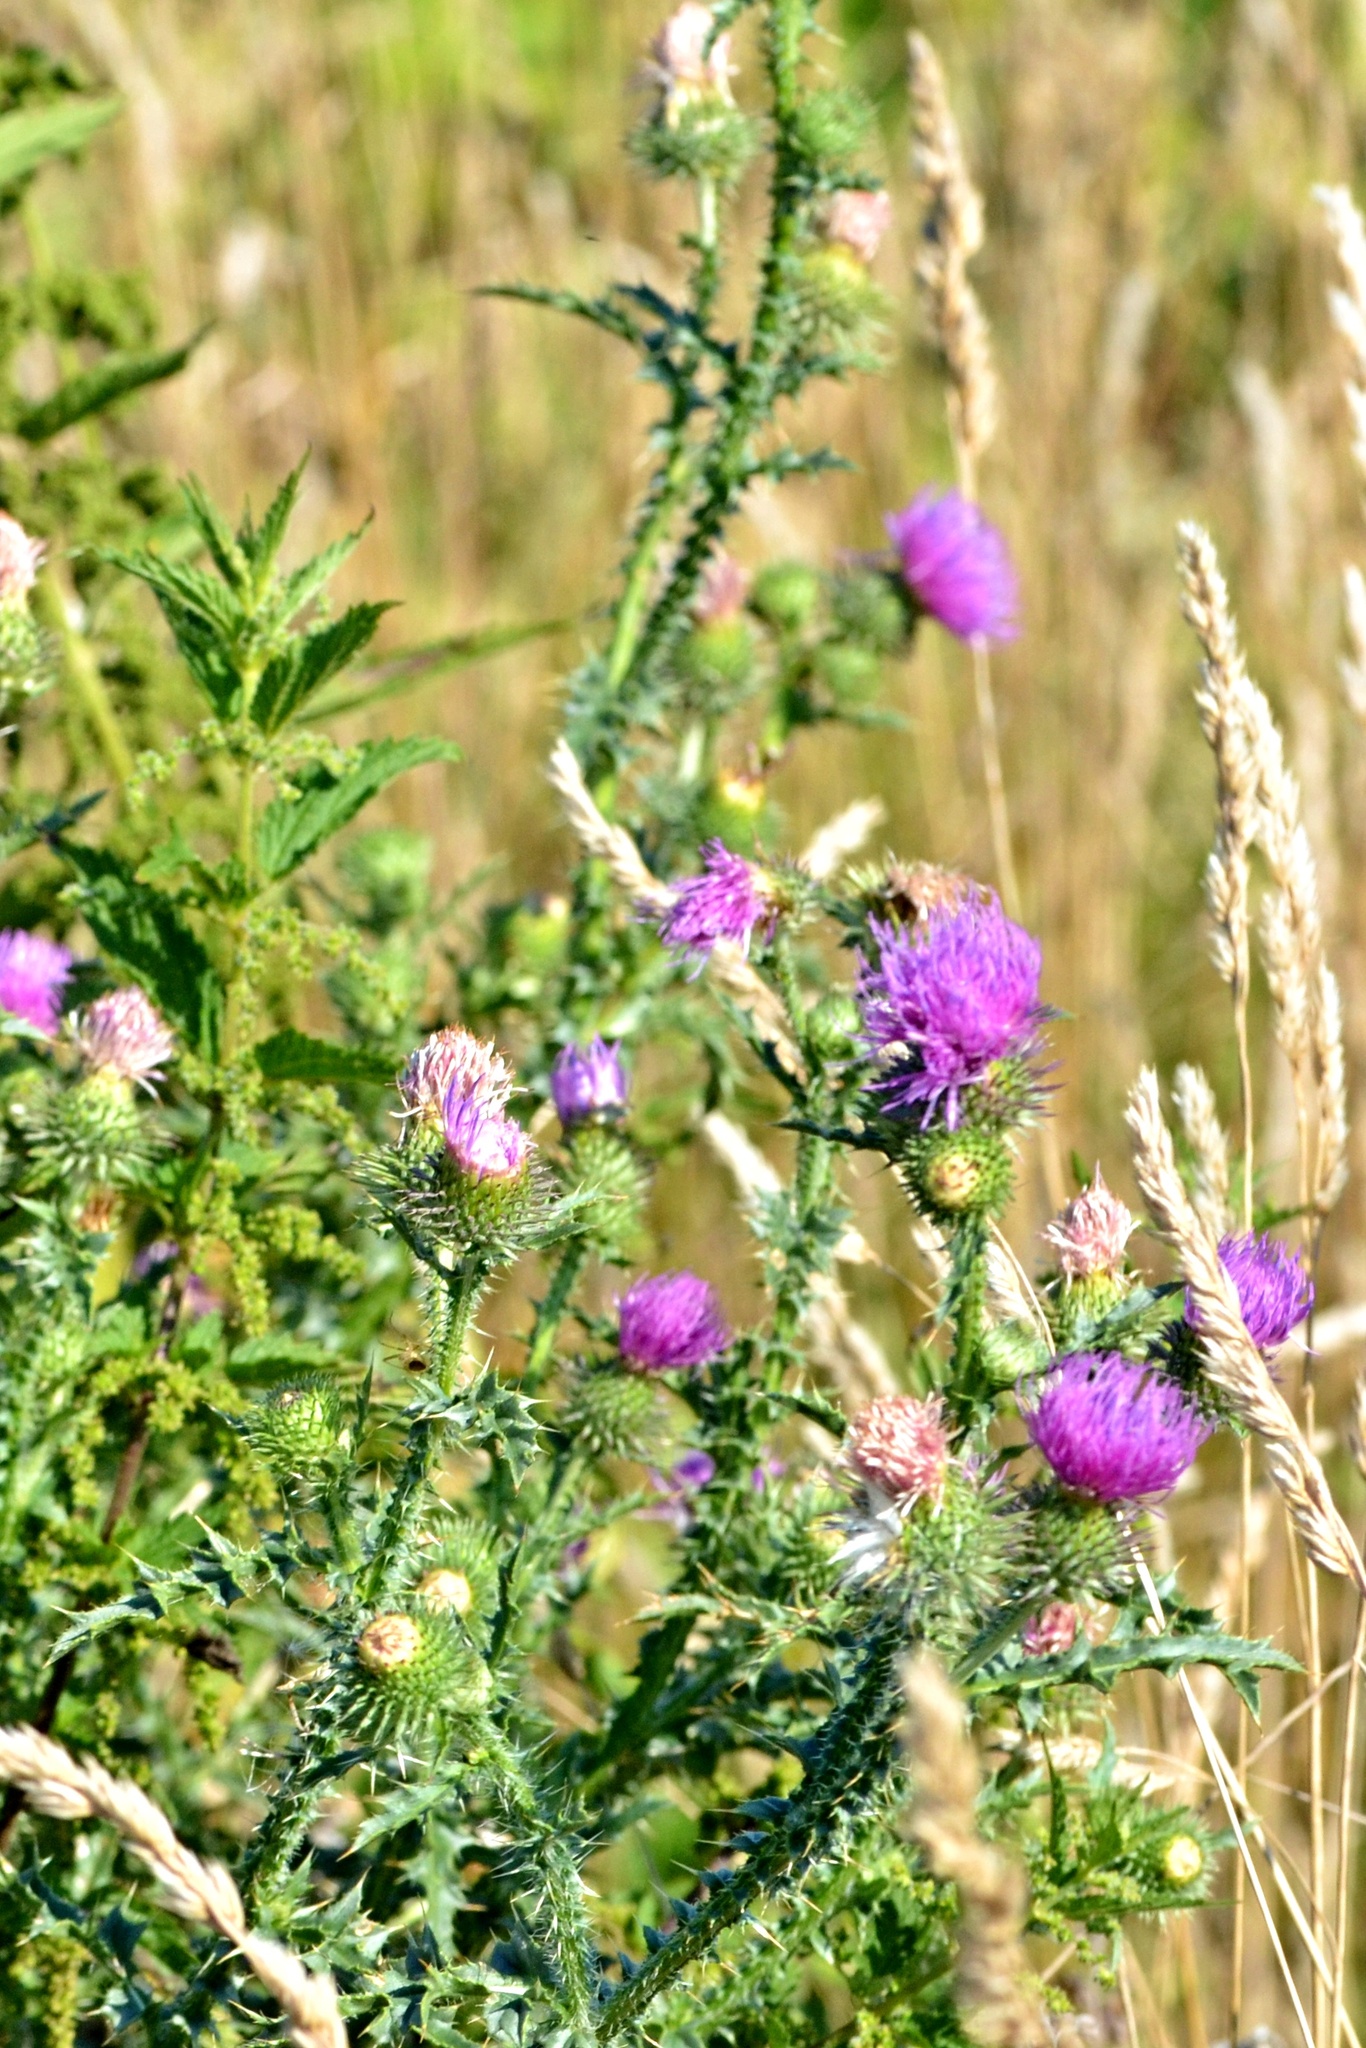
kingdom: Plantae
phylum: Tracheophyta
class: Magnoliopsida
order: Asterales
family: Asteraceae
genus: Carduus
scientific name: Carduus acanthoides
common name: Plumeless thistle
